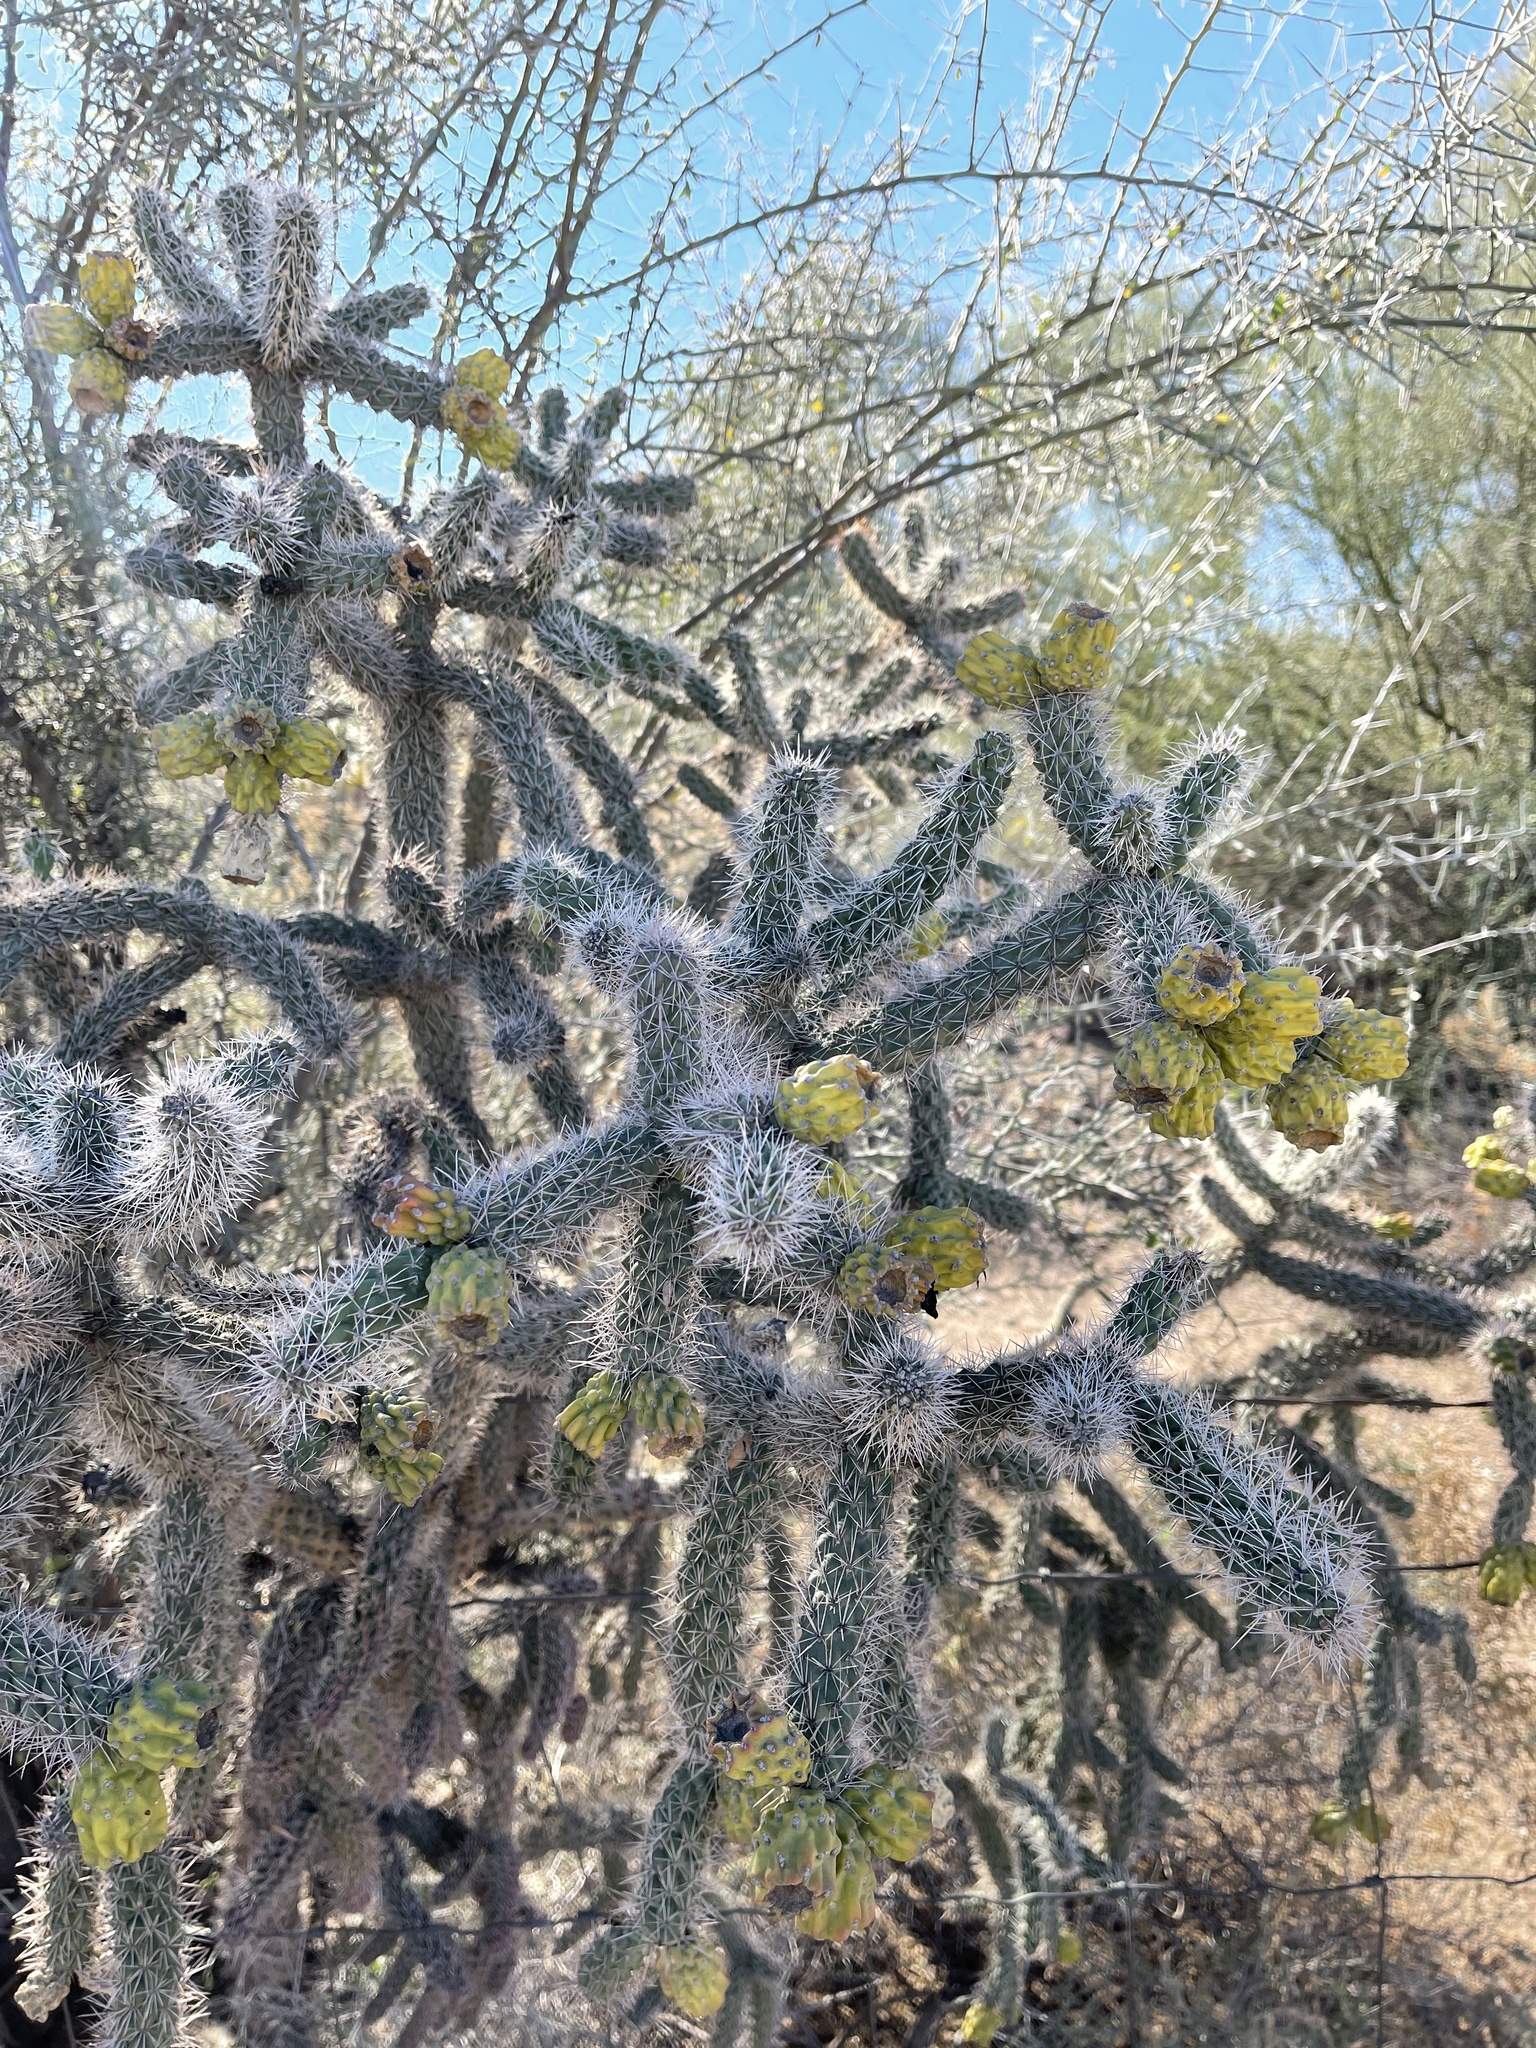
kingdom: Plantae
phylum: Tracheophyta
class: Magnoliopsida
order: Caryophyllales
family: Cactaceae
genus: Cylindropuntia
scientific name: Cylindropuntia imbricata
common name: Candelabrum cactus
